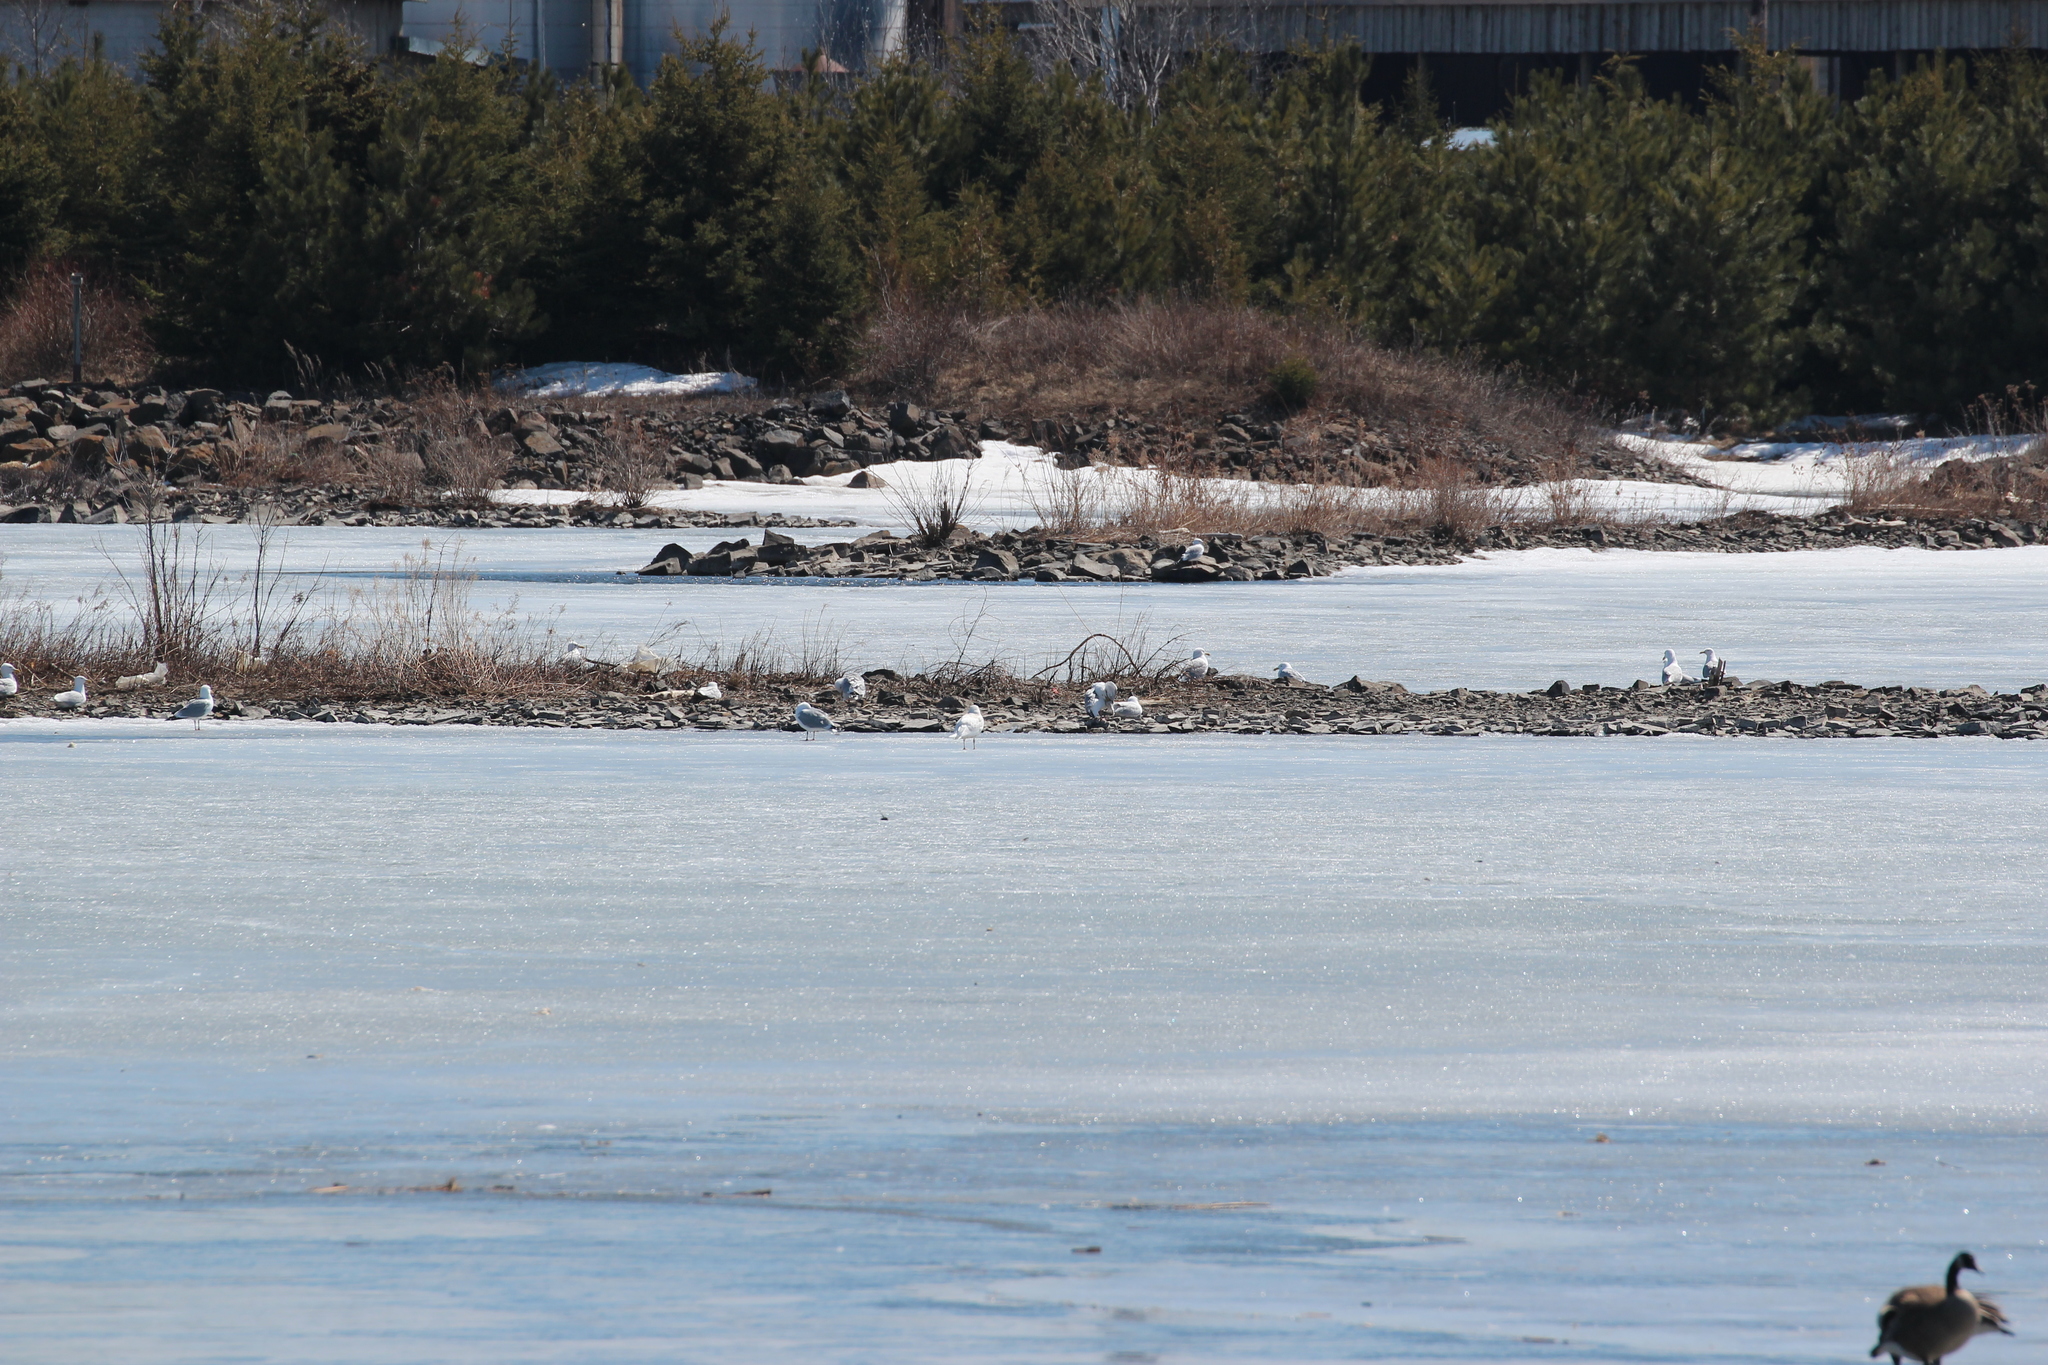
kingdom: Animalia
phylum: Chordata
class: Aves
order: Charadriiformes
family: Laridae
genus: Larus
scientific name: Larus hyperboreus
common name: Glaucous gull
